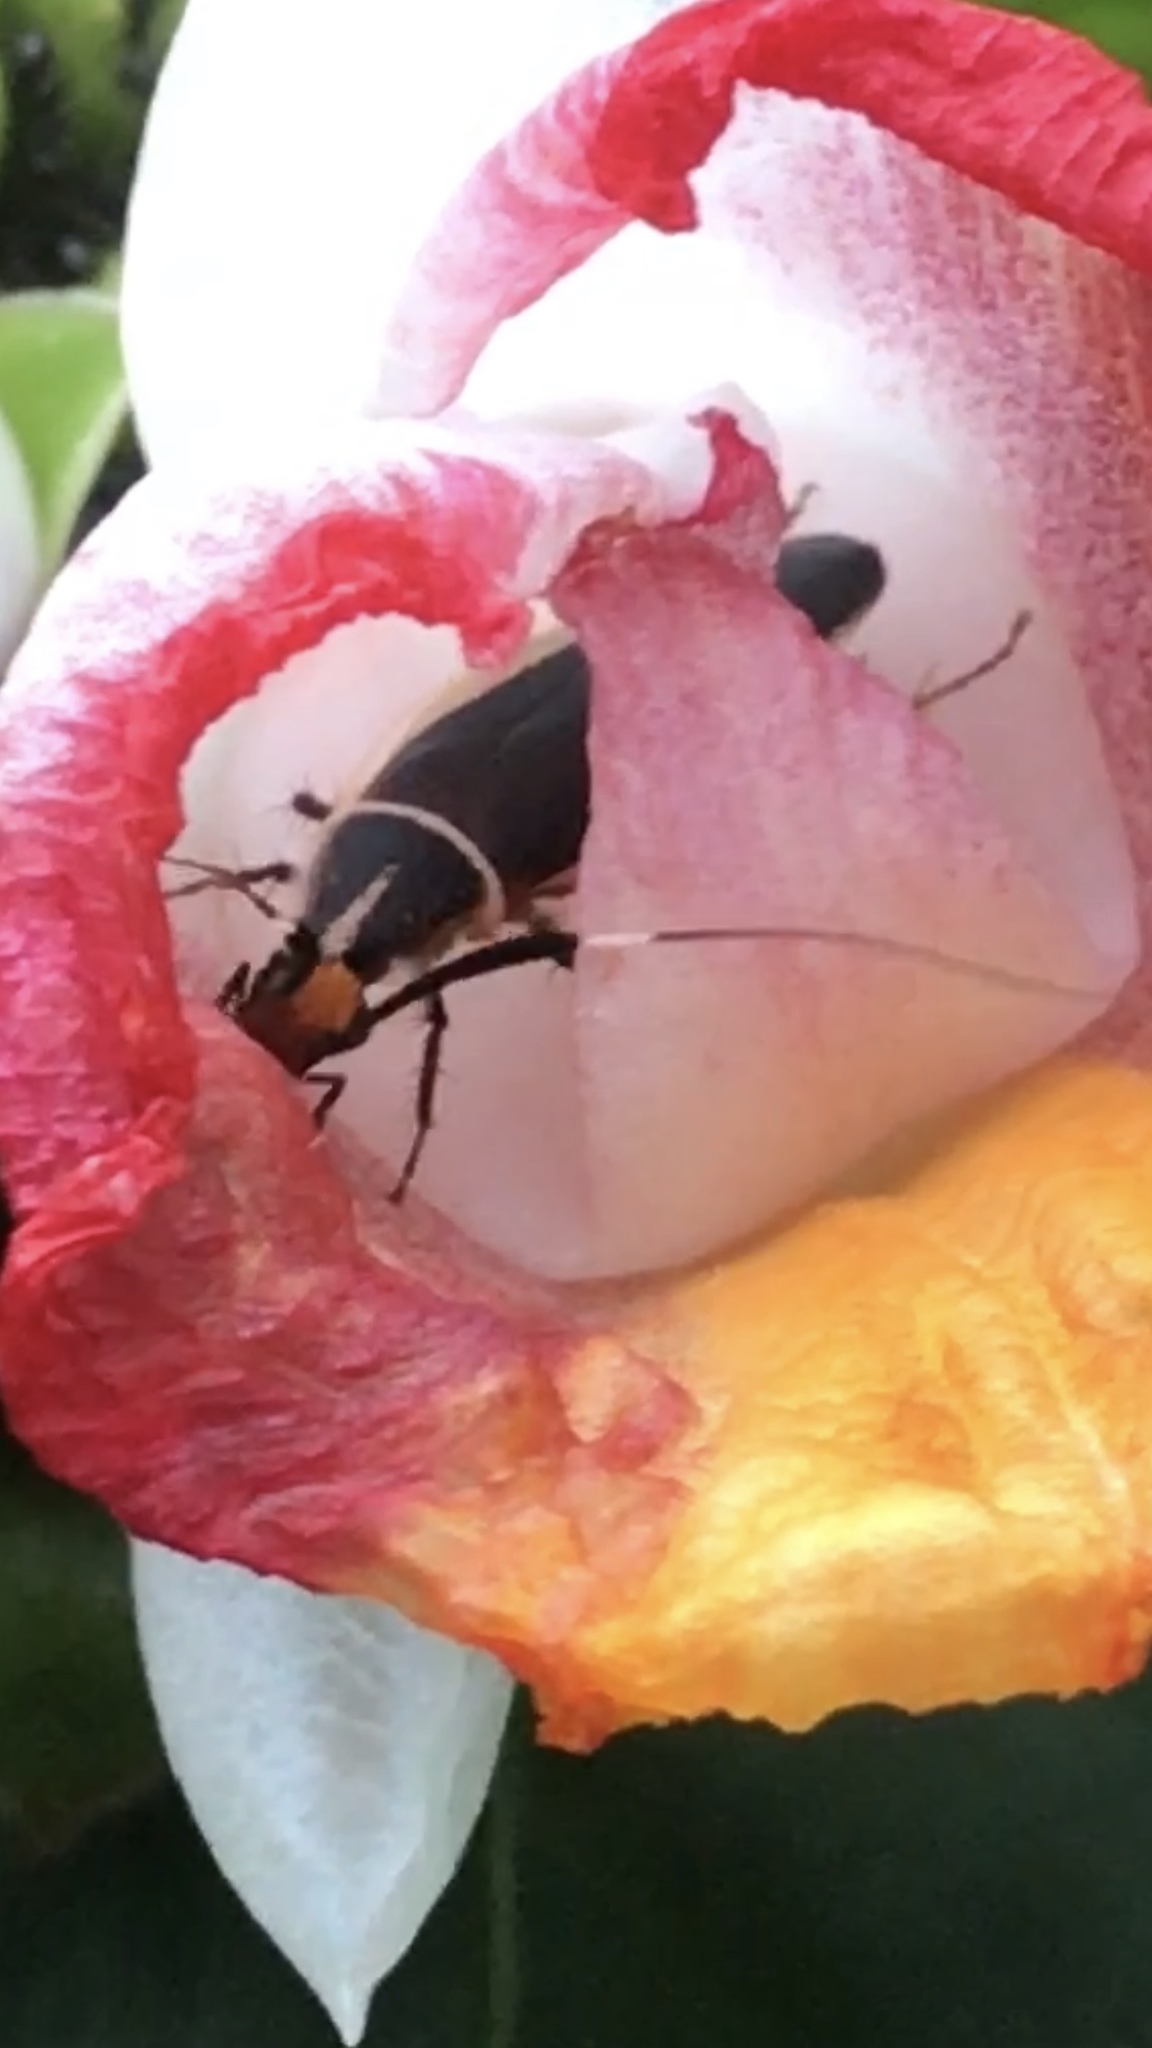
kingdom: Animalia
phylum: Arthropoda
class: Insecta
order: Blattodea
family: Ectobiidae
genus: Hemithyrsocera
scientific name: Hemithyrsocera histrio
